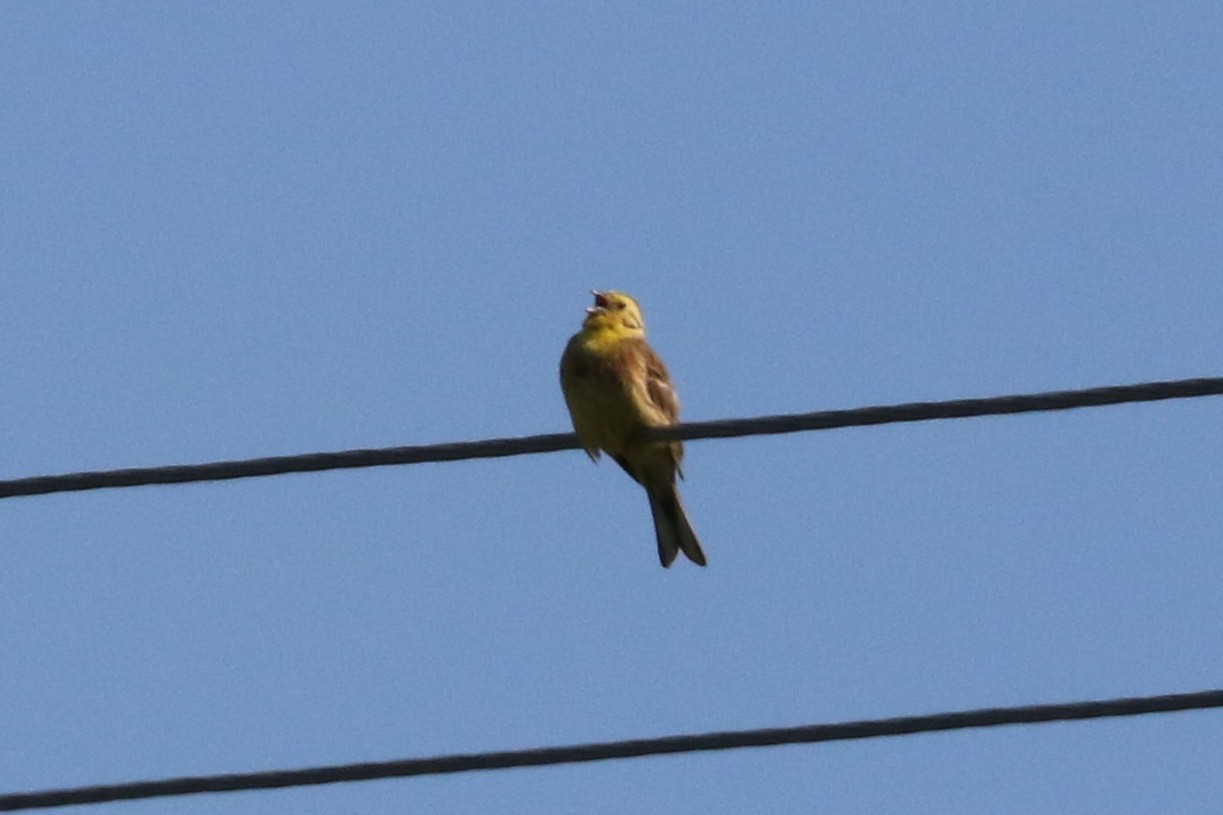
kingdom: Animalia
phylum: Chordata
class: Aves
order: Passeriformes
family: Emberizidae
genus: Emberiza
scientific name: Emberiza citrinella
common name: Yellowhammer
